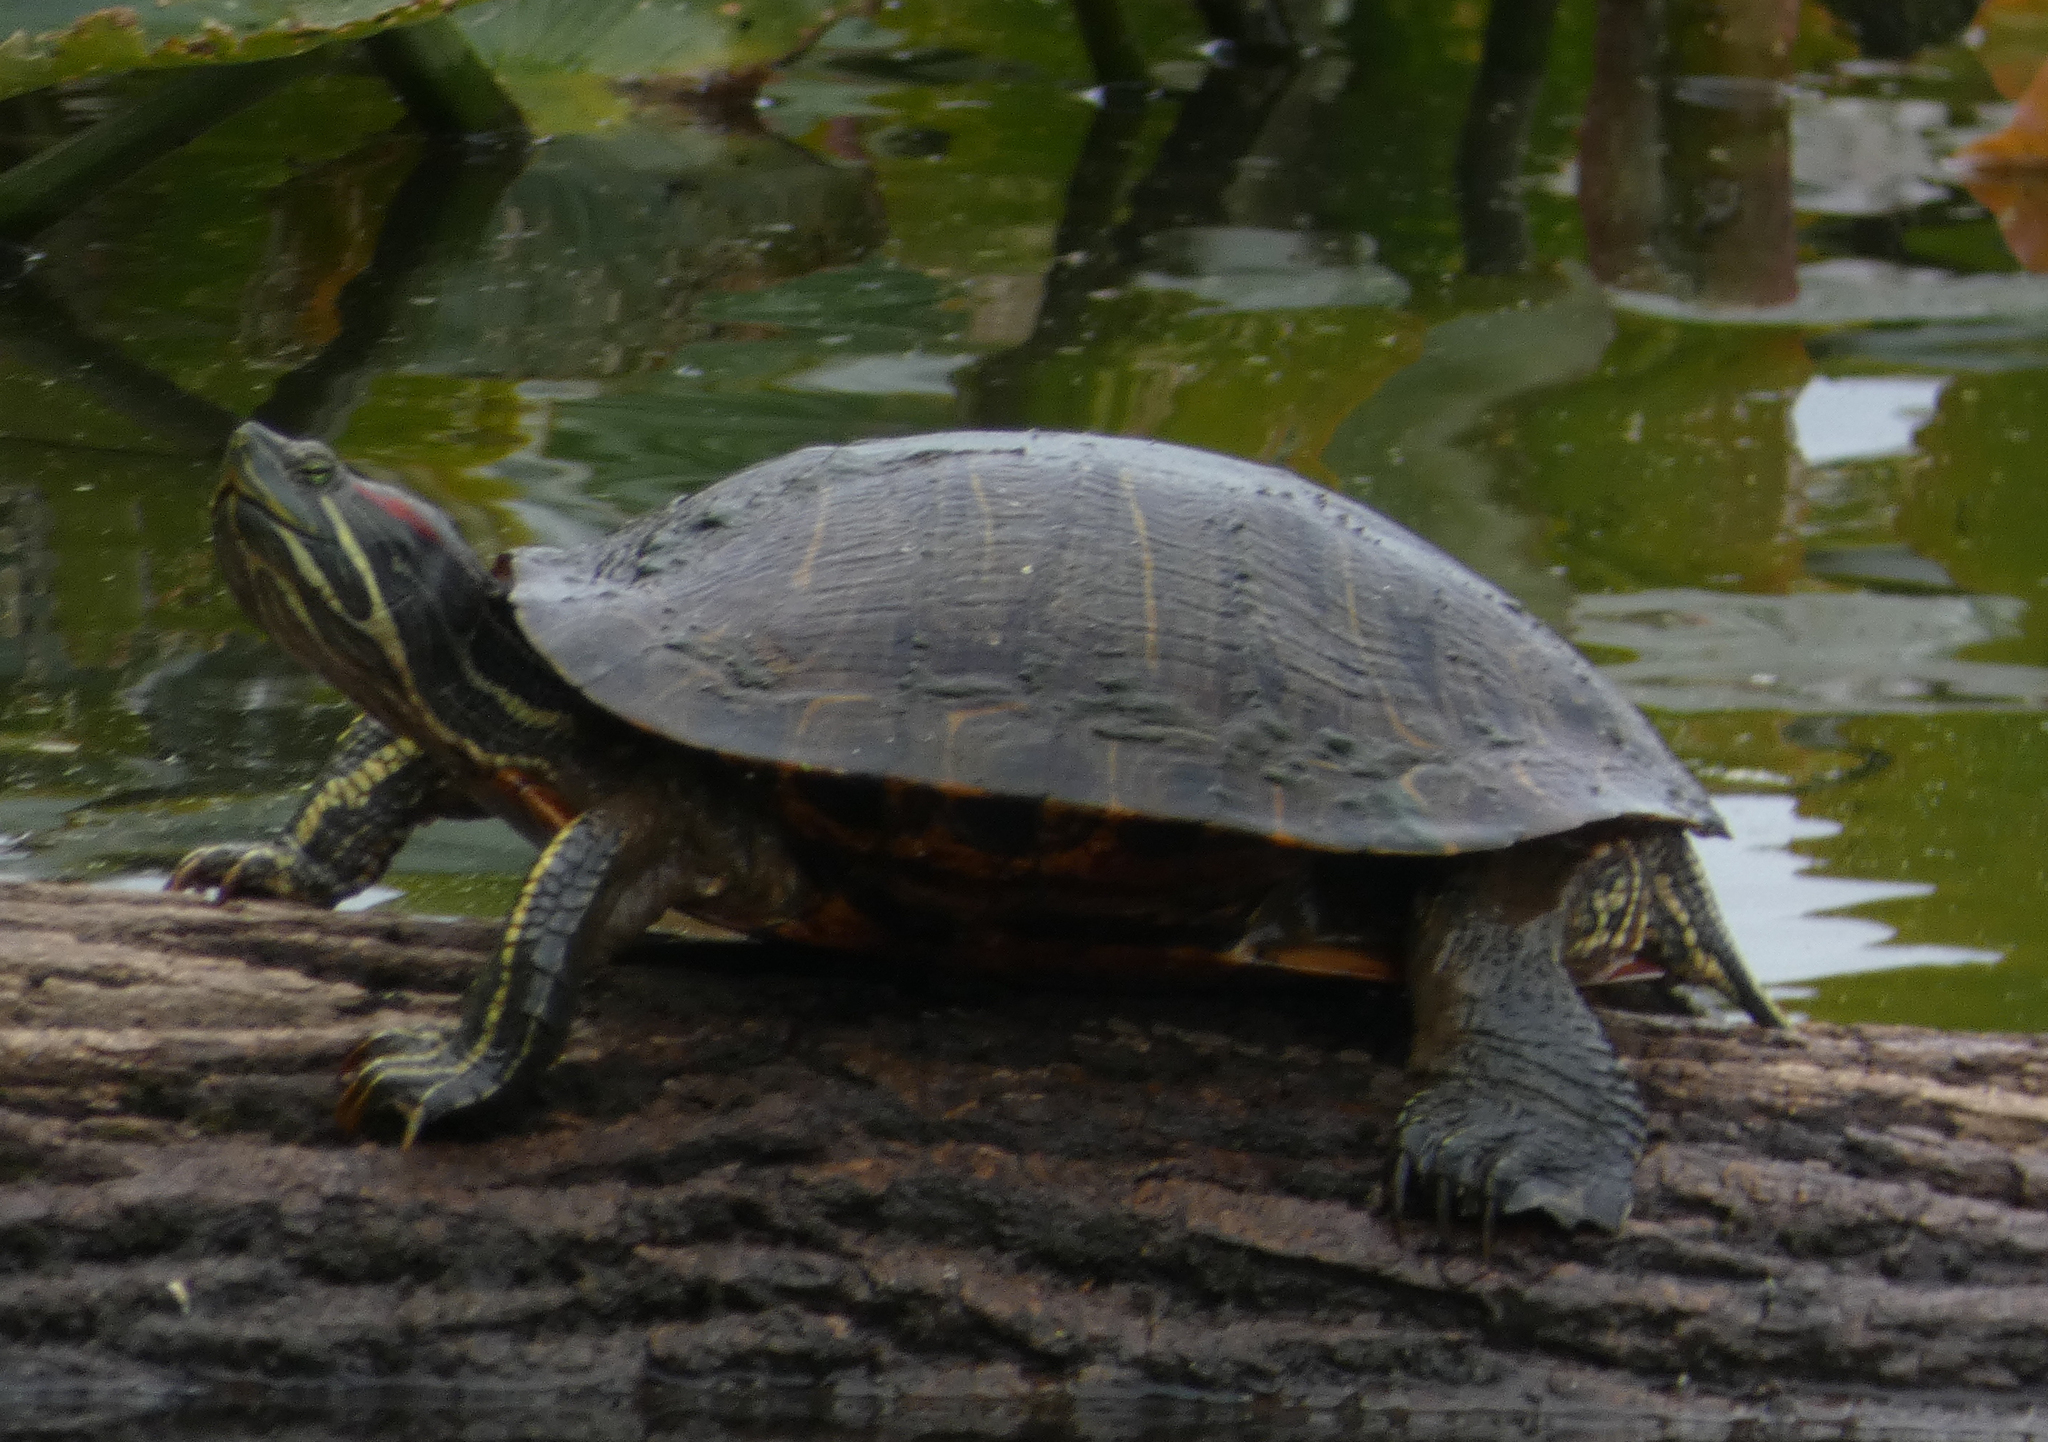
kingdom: Animalia
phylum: Chordata
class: Testudines
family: Emydidae
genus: Trachemys
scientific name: Trachemys scripta
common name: Slider
